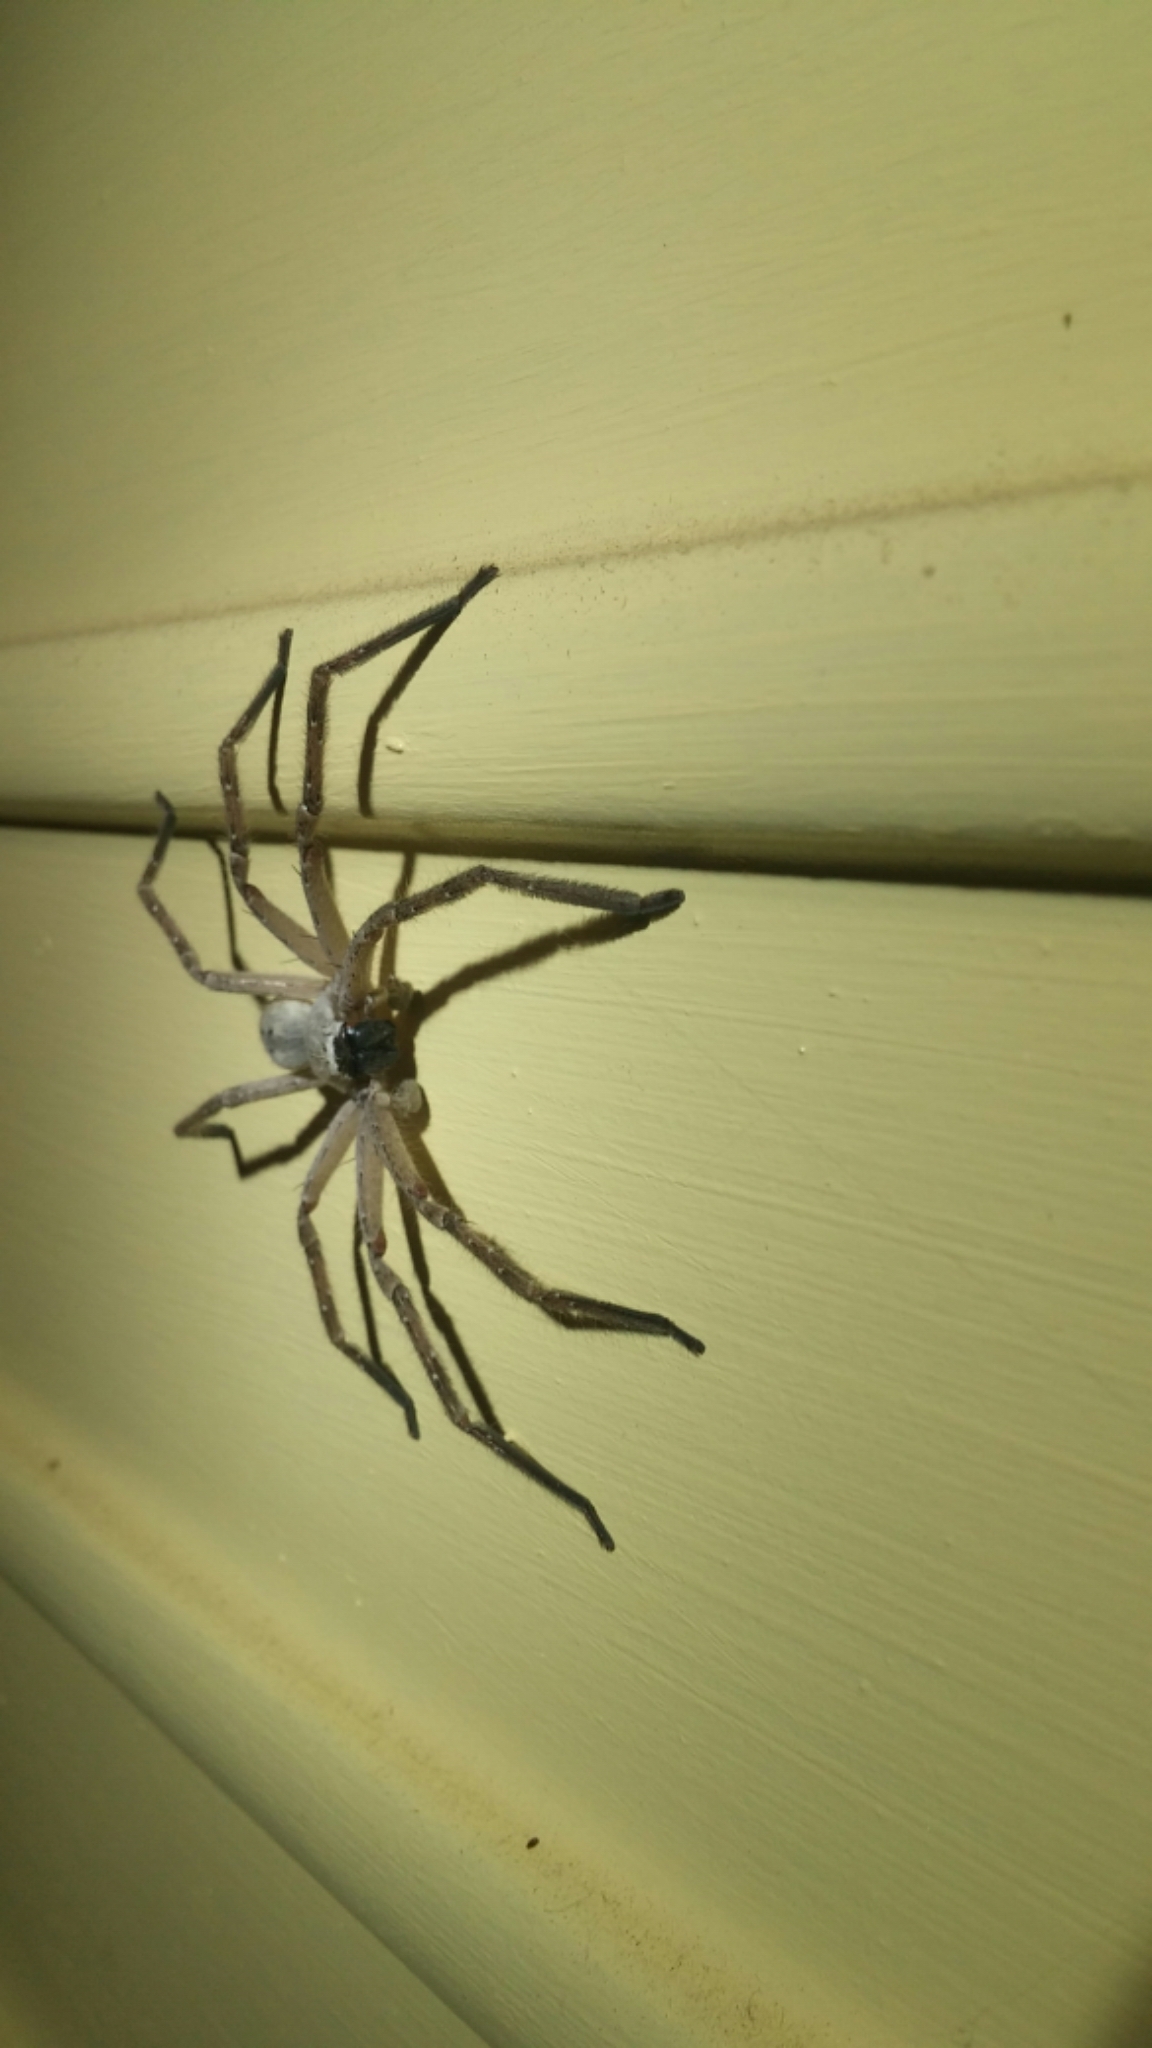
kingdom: Animalia
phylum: Arthropoda
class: Arachnida
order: Araneae
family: Sparassidae
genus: Olios
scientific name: Olios giganteus
